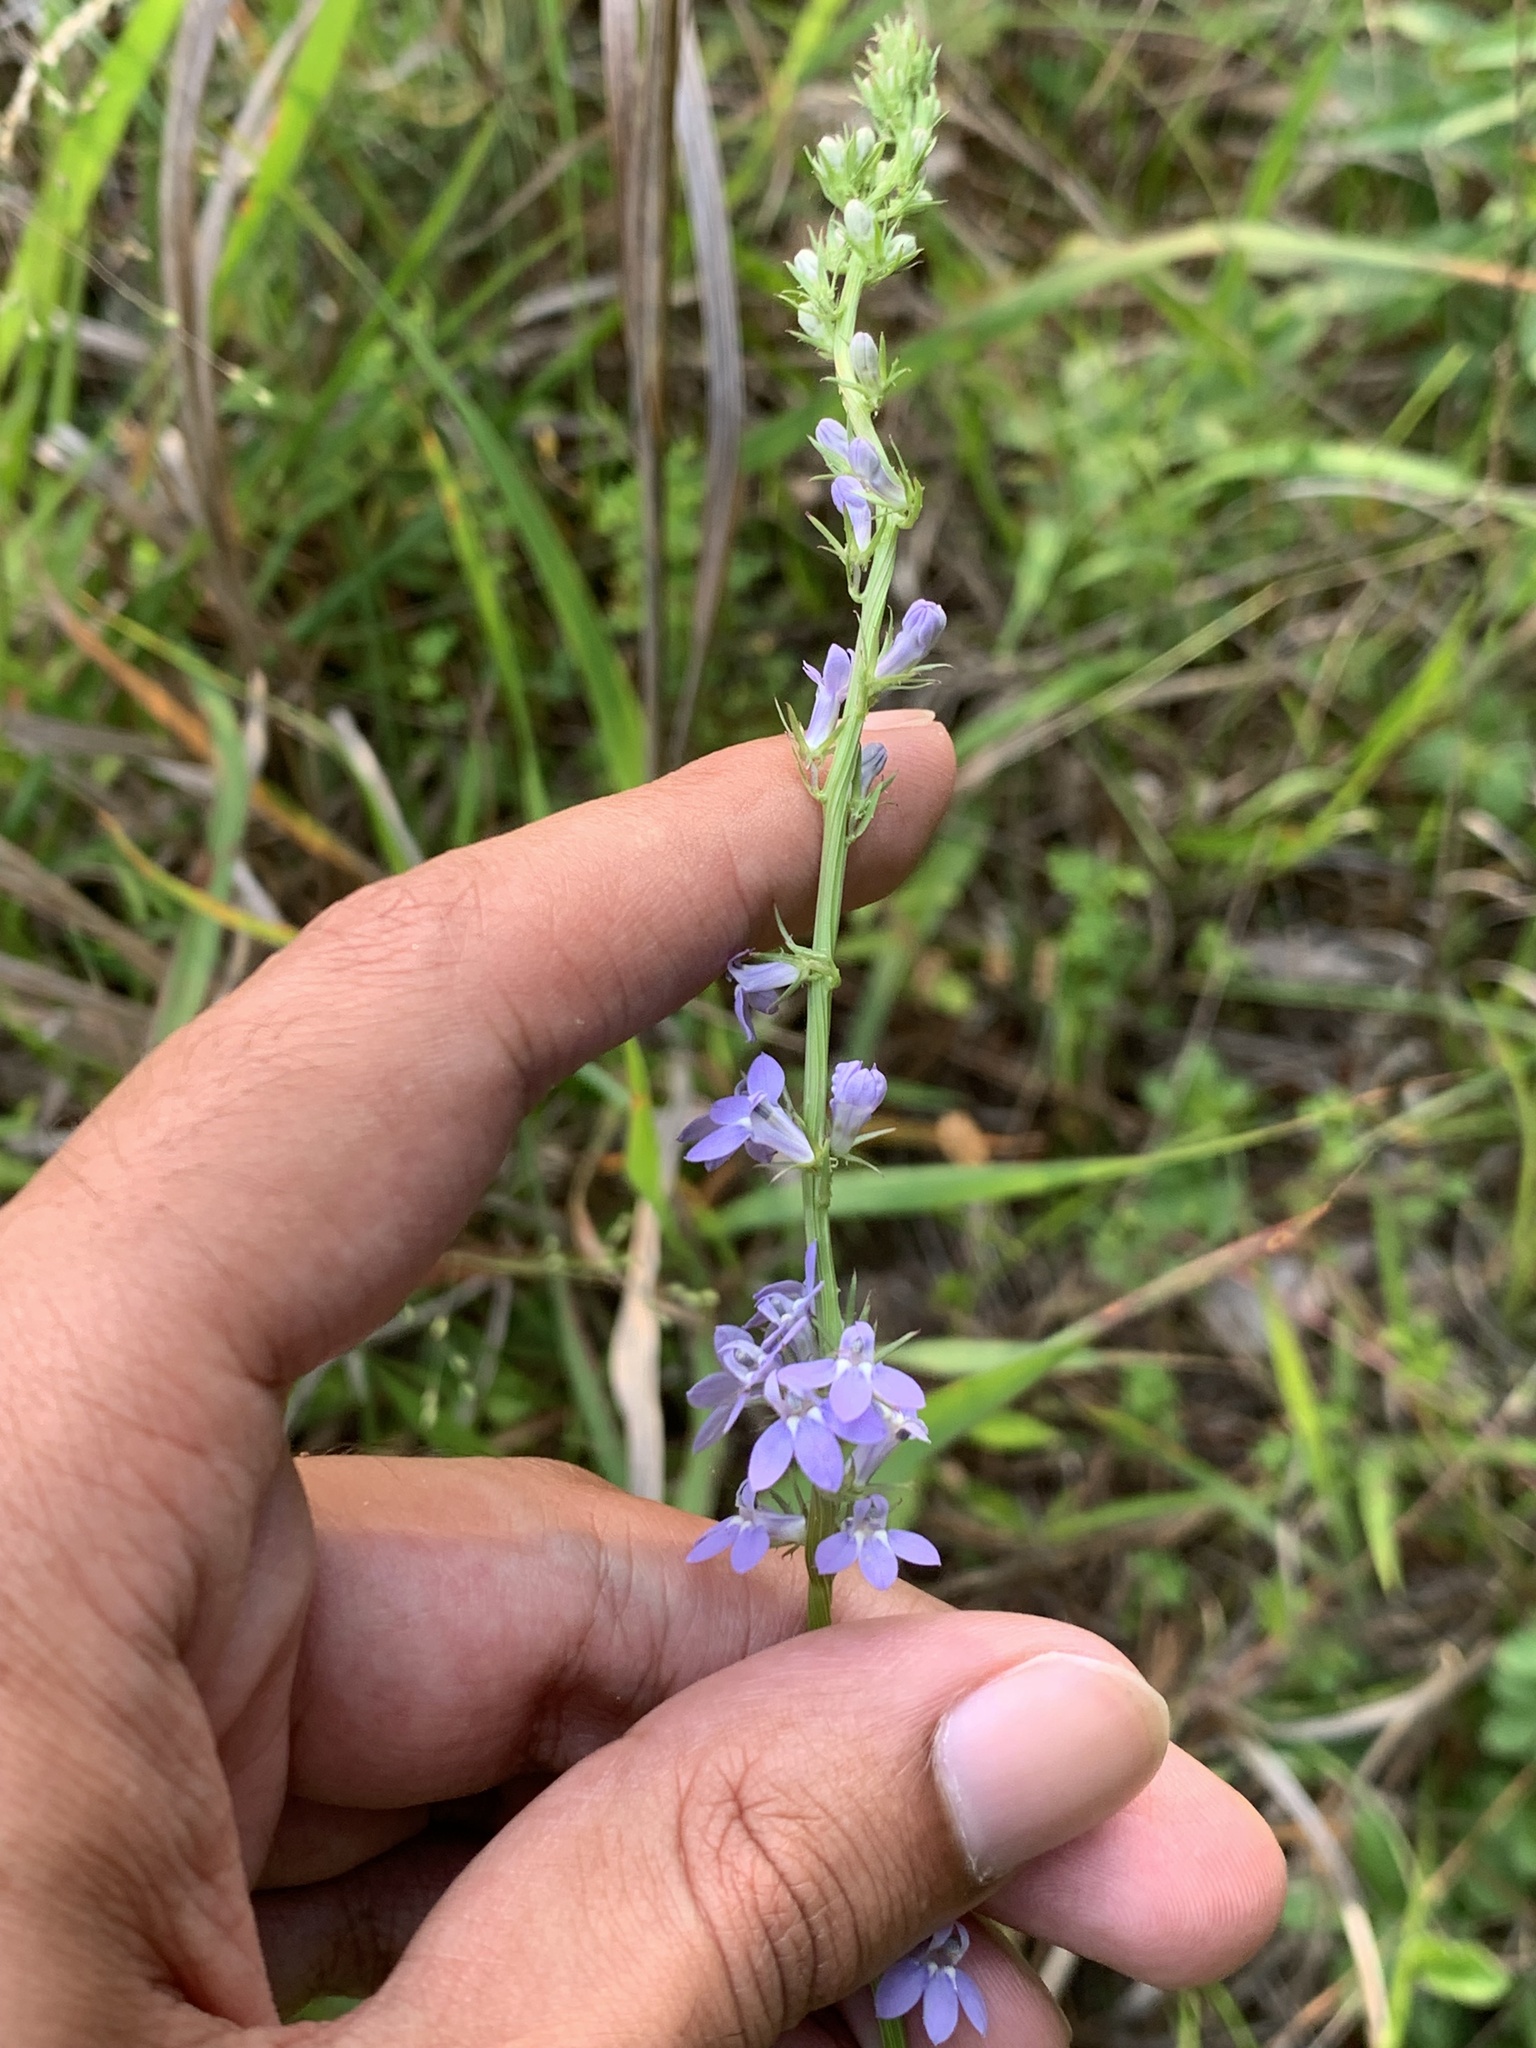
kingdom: Plantae
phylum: Tracheophyta
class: Magnoliopsida
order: Asterales
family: Campanulaceae
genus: Lobelia
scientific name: Lobelia spicata
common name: Pale-spike lobelia
